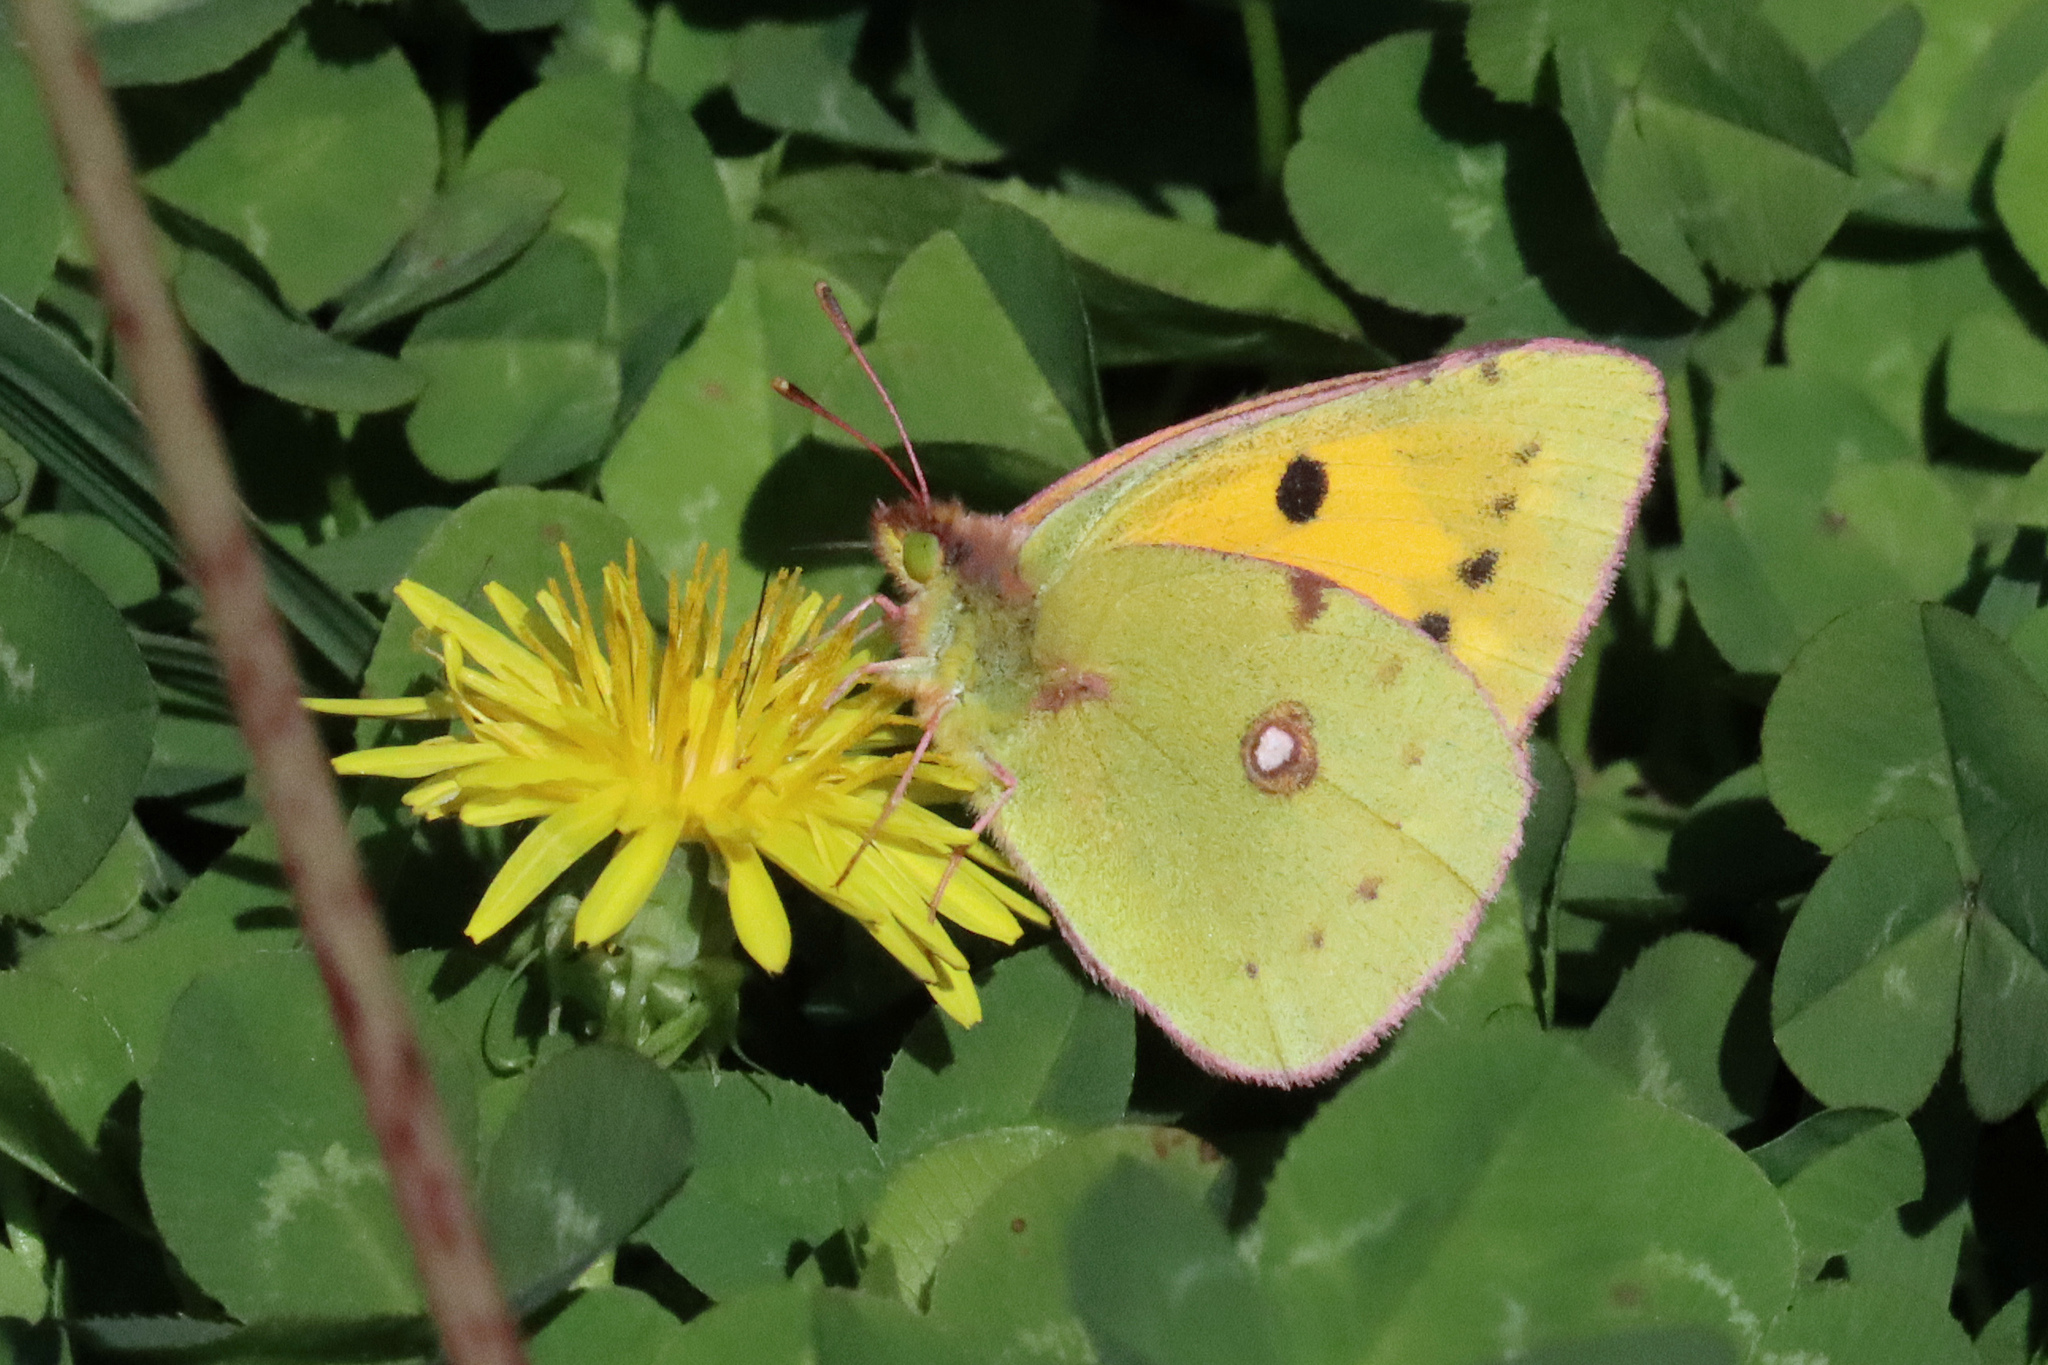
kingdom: Animalia
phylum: Arthropoda
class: Insecta
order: Lepidoptera
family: Pieridae
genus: Colias
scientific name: Colias croceus
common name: Clouded yellow
